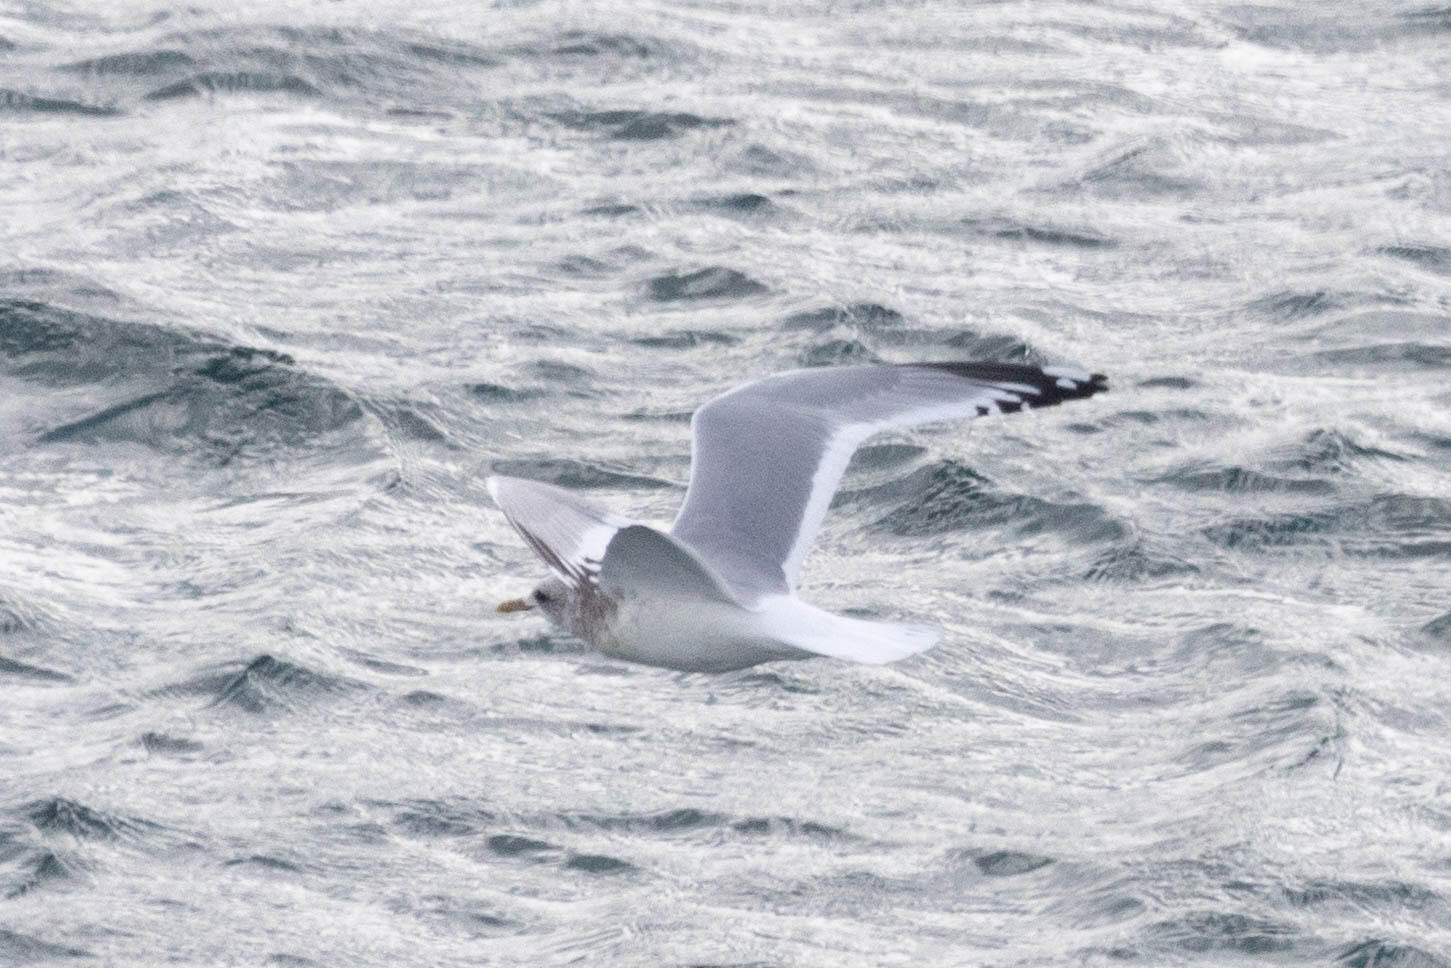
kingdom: Animalia
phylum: Chordata
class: Aves
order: Charadriiformes
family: Laridae
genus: Larus
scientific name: Larus brachyrhynchus
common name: Short-billed gull
